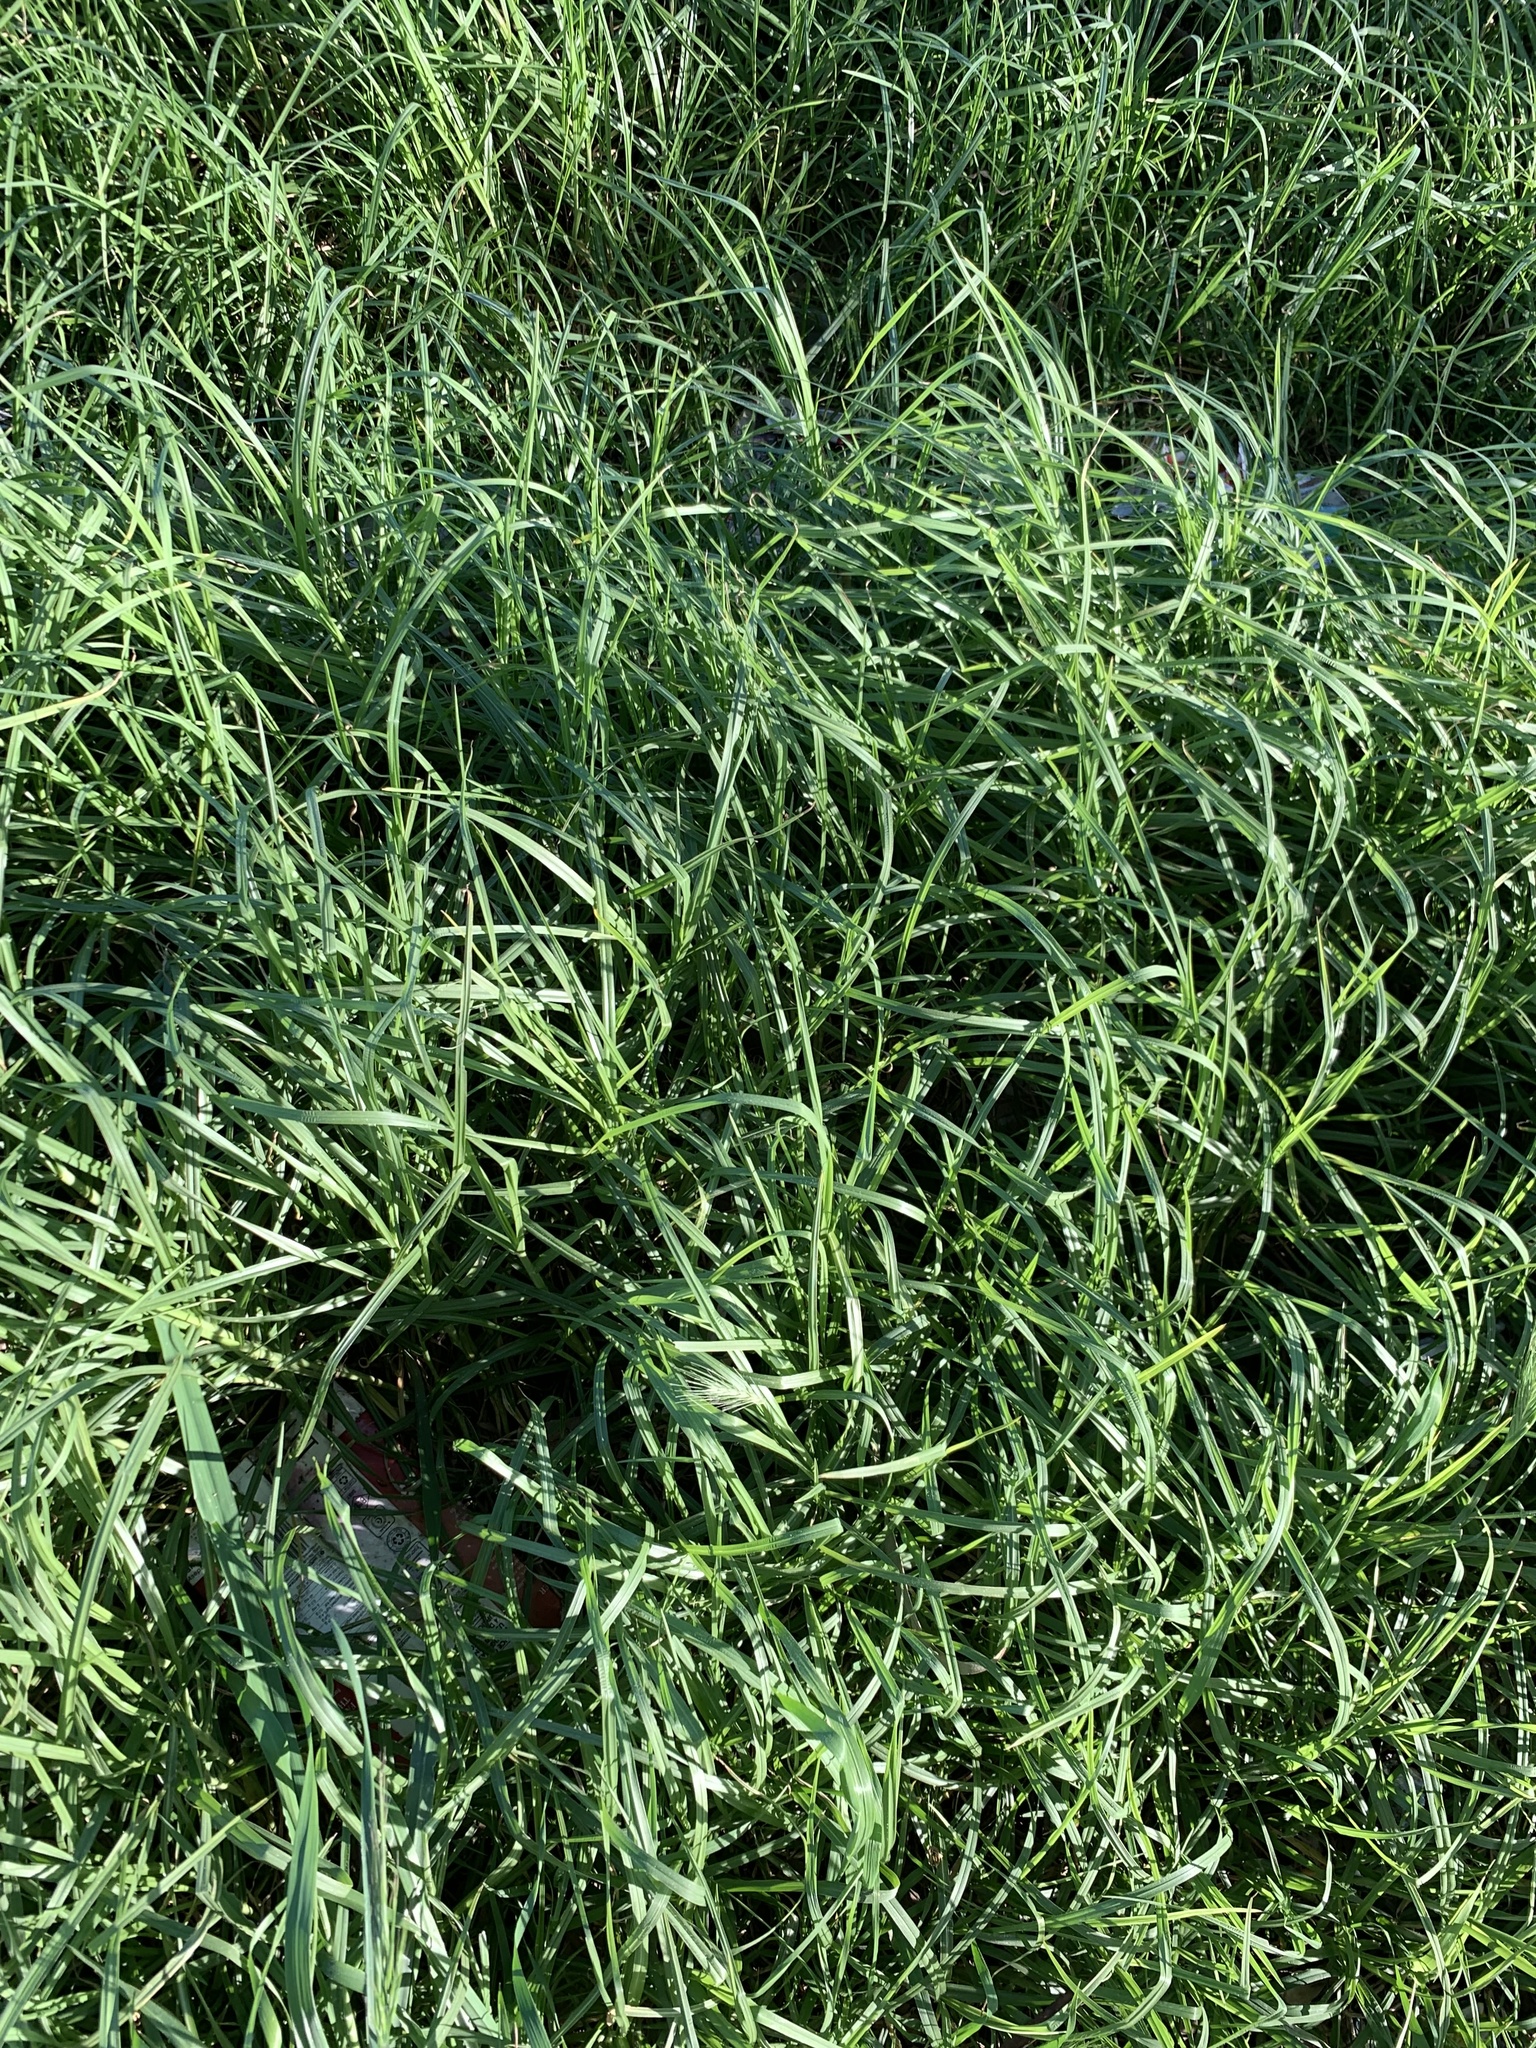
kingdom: Plantae
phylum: Tracheophyta
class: Liliopsida
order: Poales
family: Poaceae
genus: Cenchrus
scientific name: Cenchrus clandestinus
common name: Kikuyugrass
